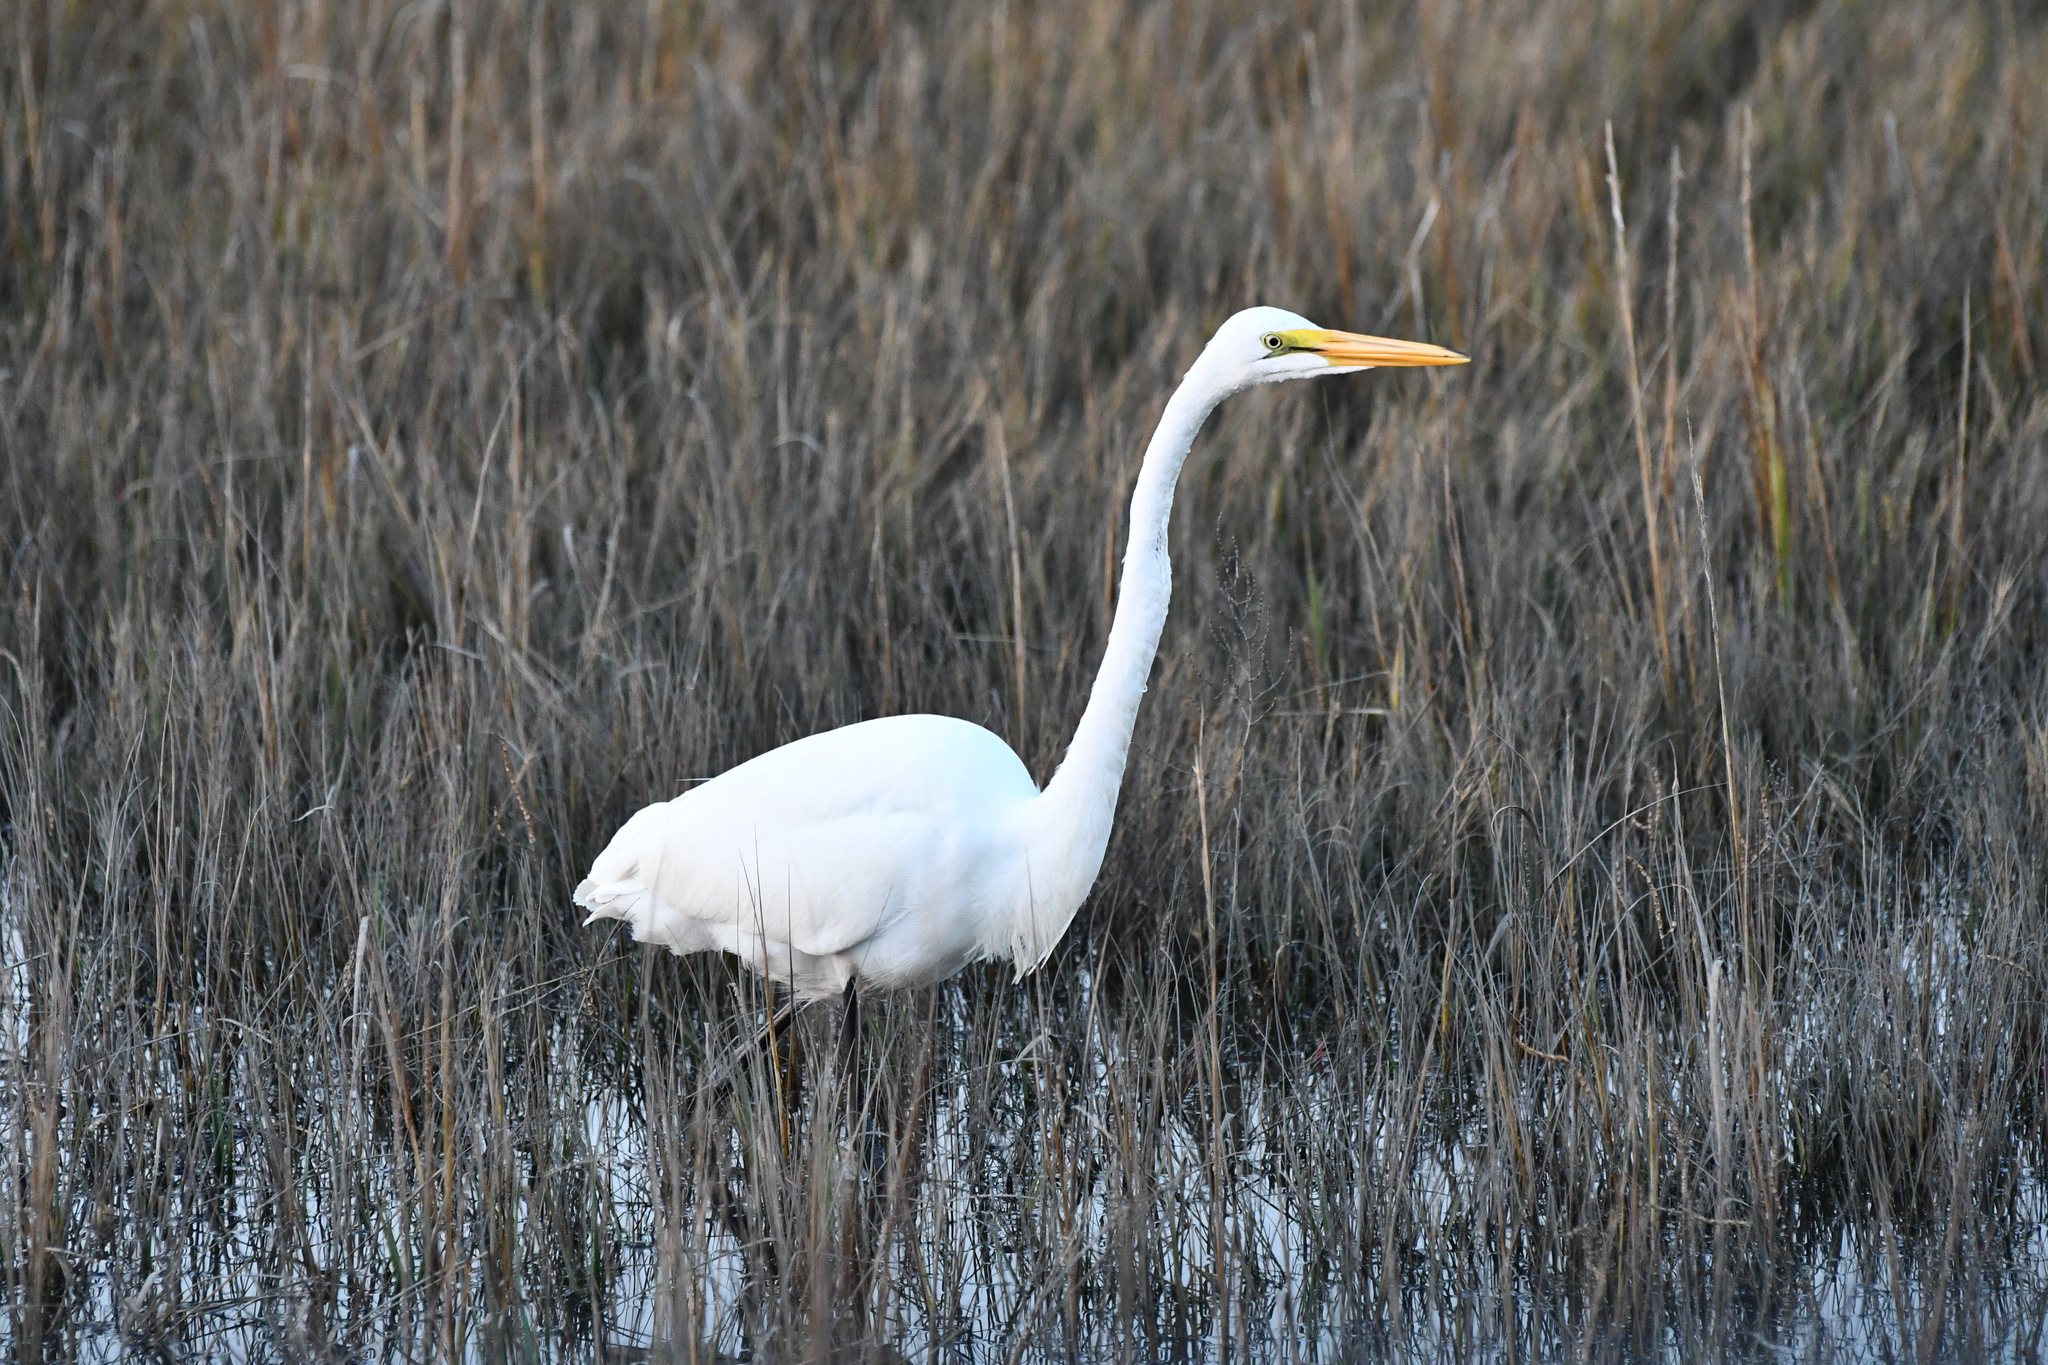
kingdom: Animalia
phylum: Chordata
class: Aves
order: Pelecaniformes
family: Ardeidae
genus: Ardea
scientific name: Ardea alba
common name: Great egret
